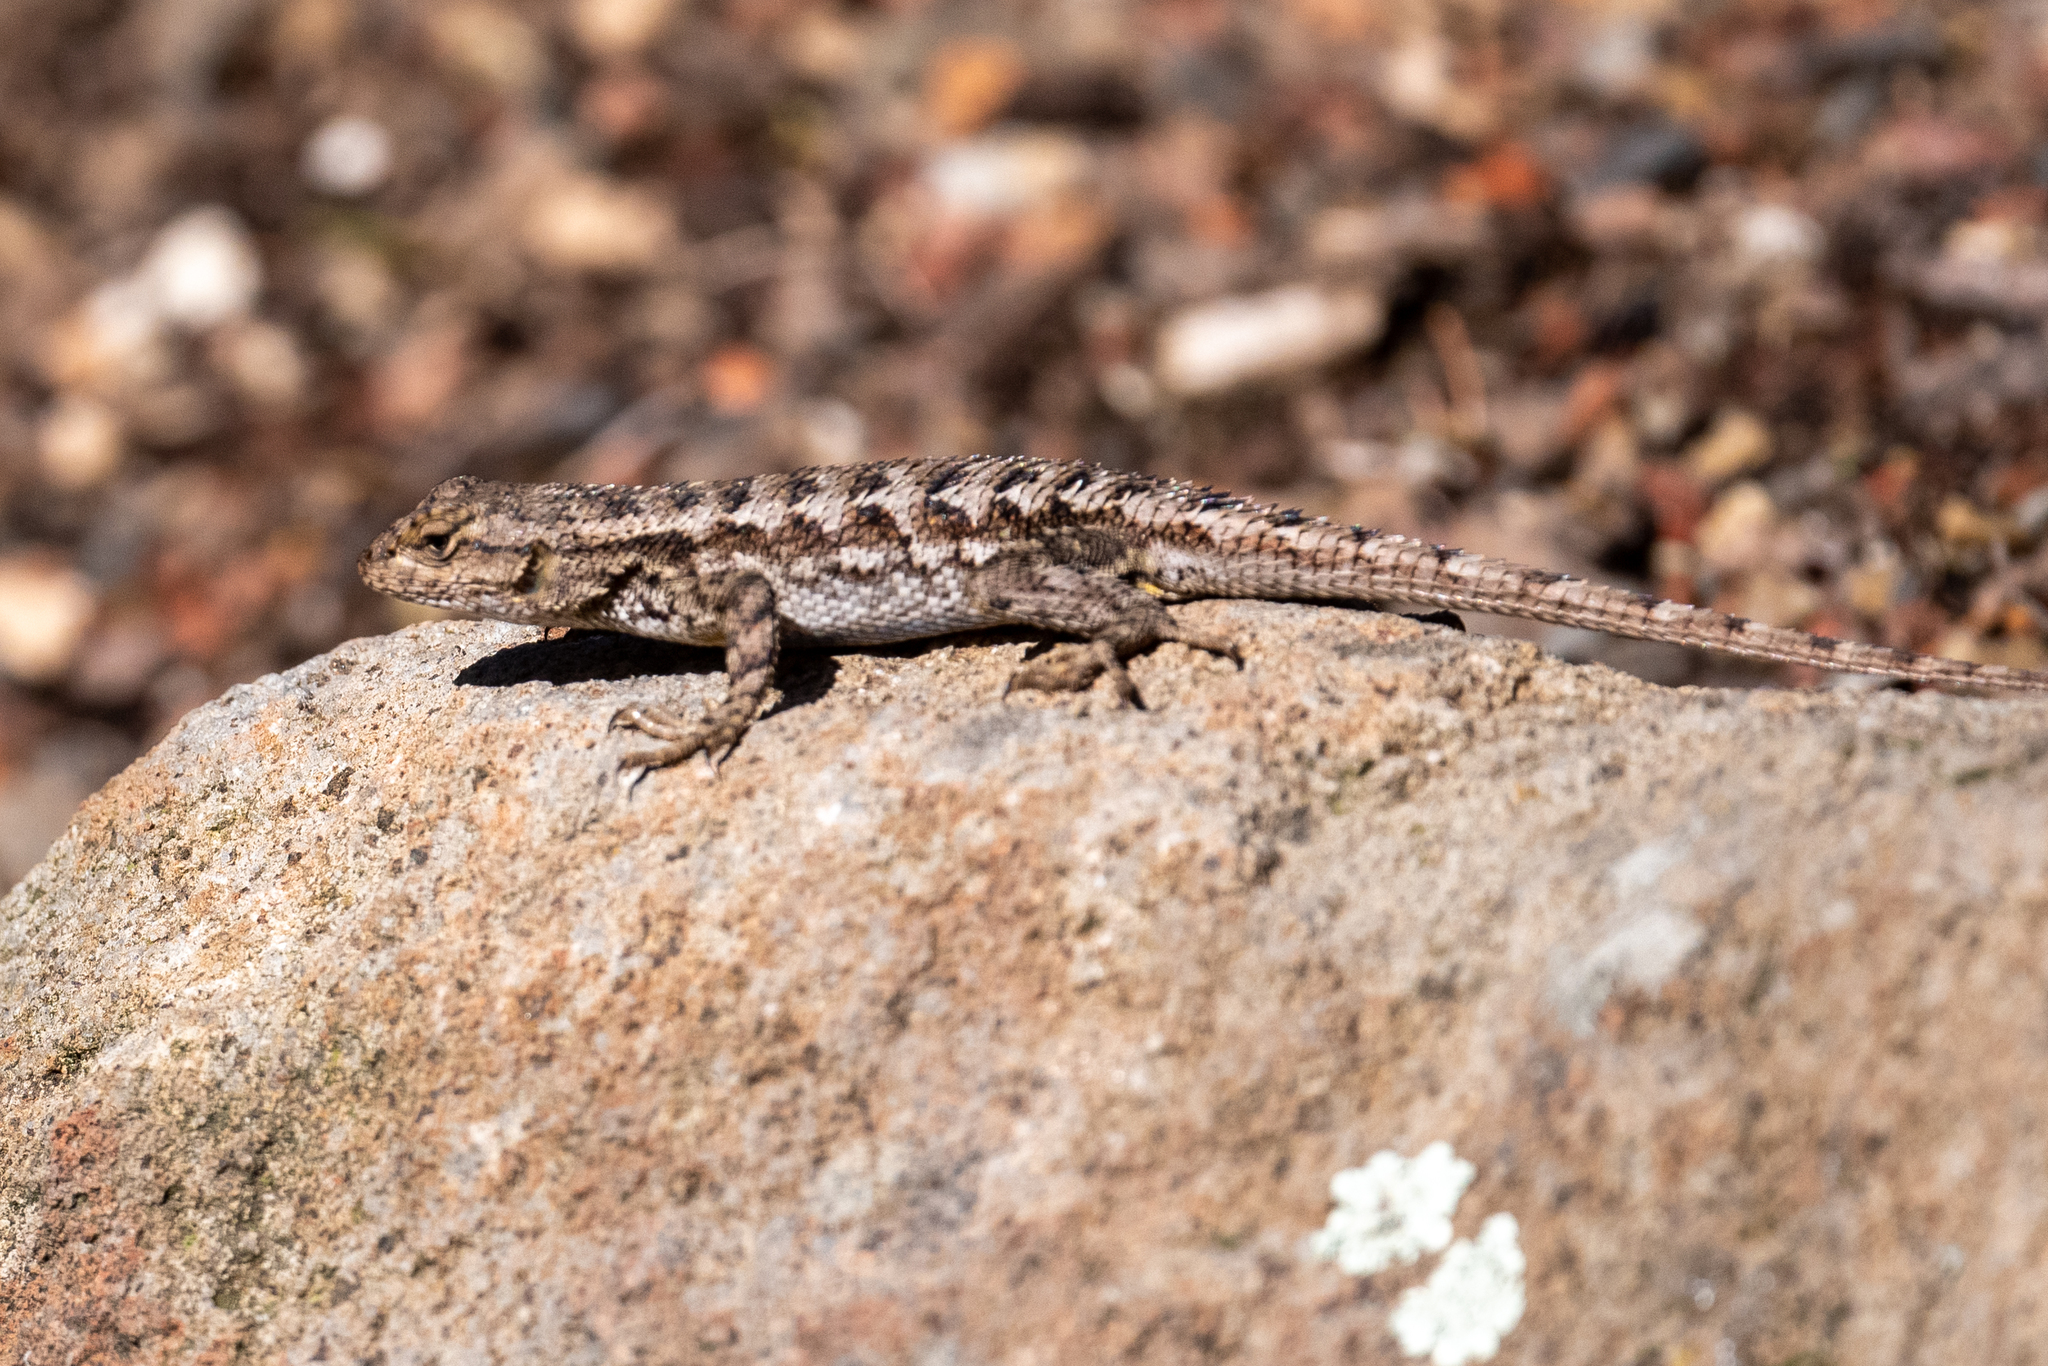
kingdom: Animalia
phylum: Chordata
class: Squamata
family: Phrynosomatidae
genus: Sceloporus
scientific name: Sceloporus occidentalis
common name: Western fence lizard
